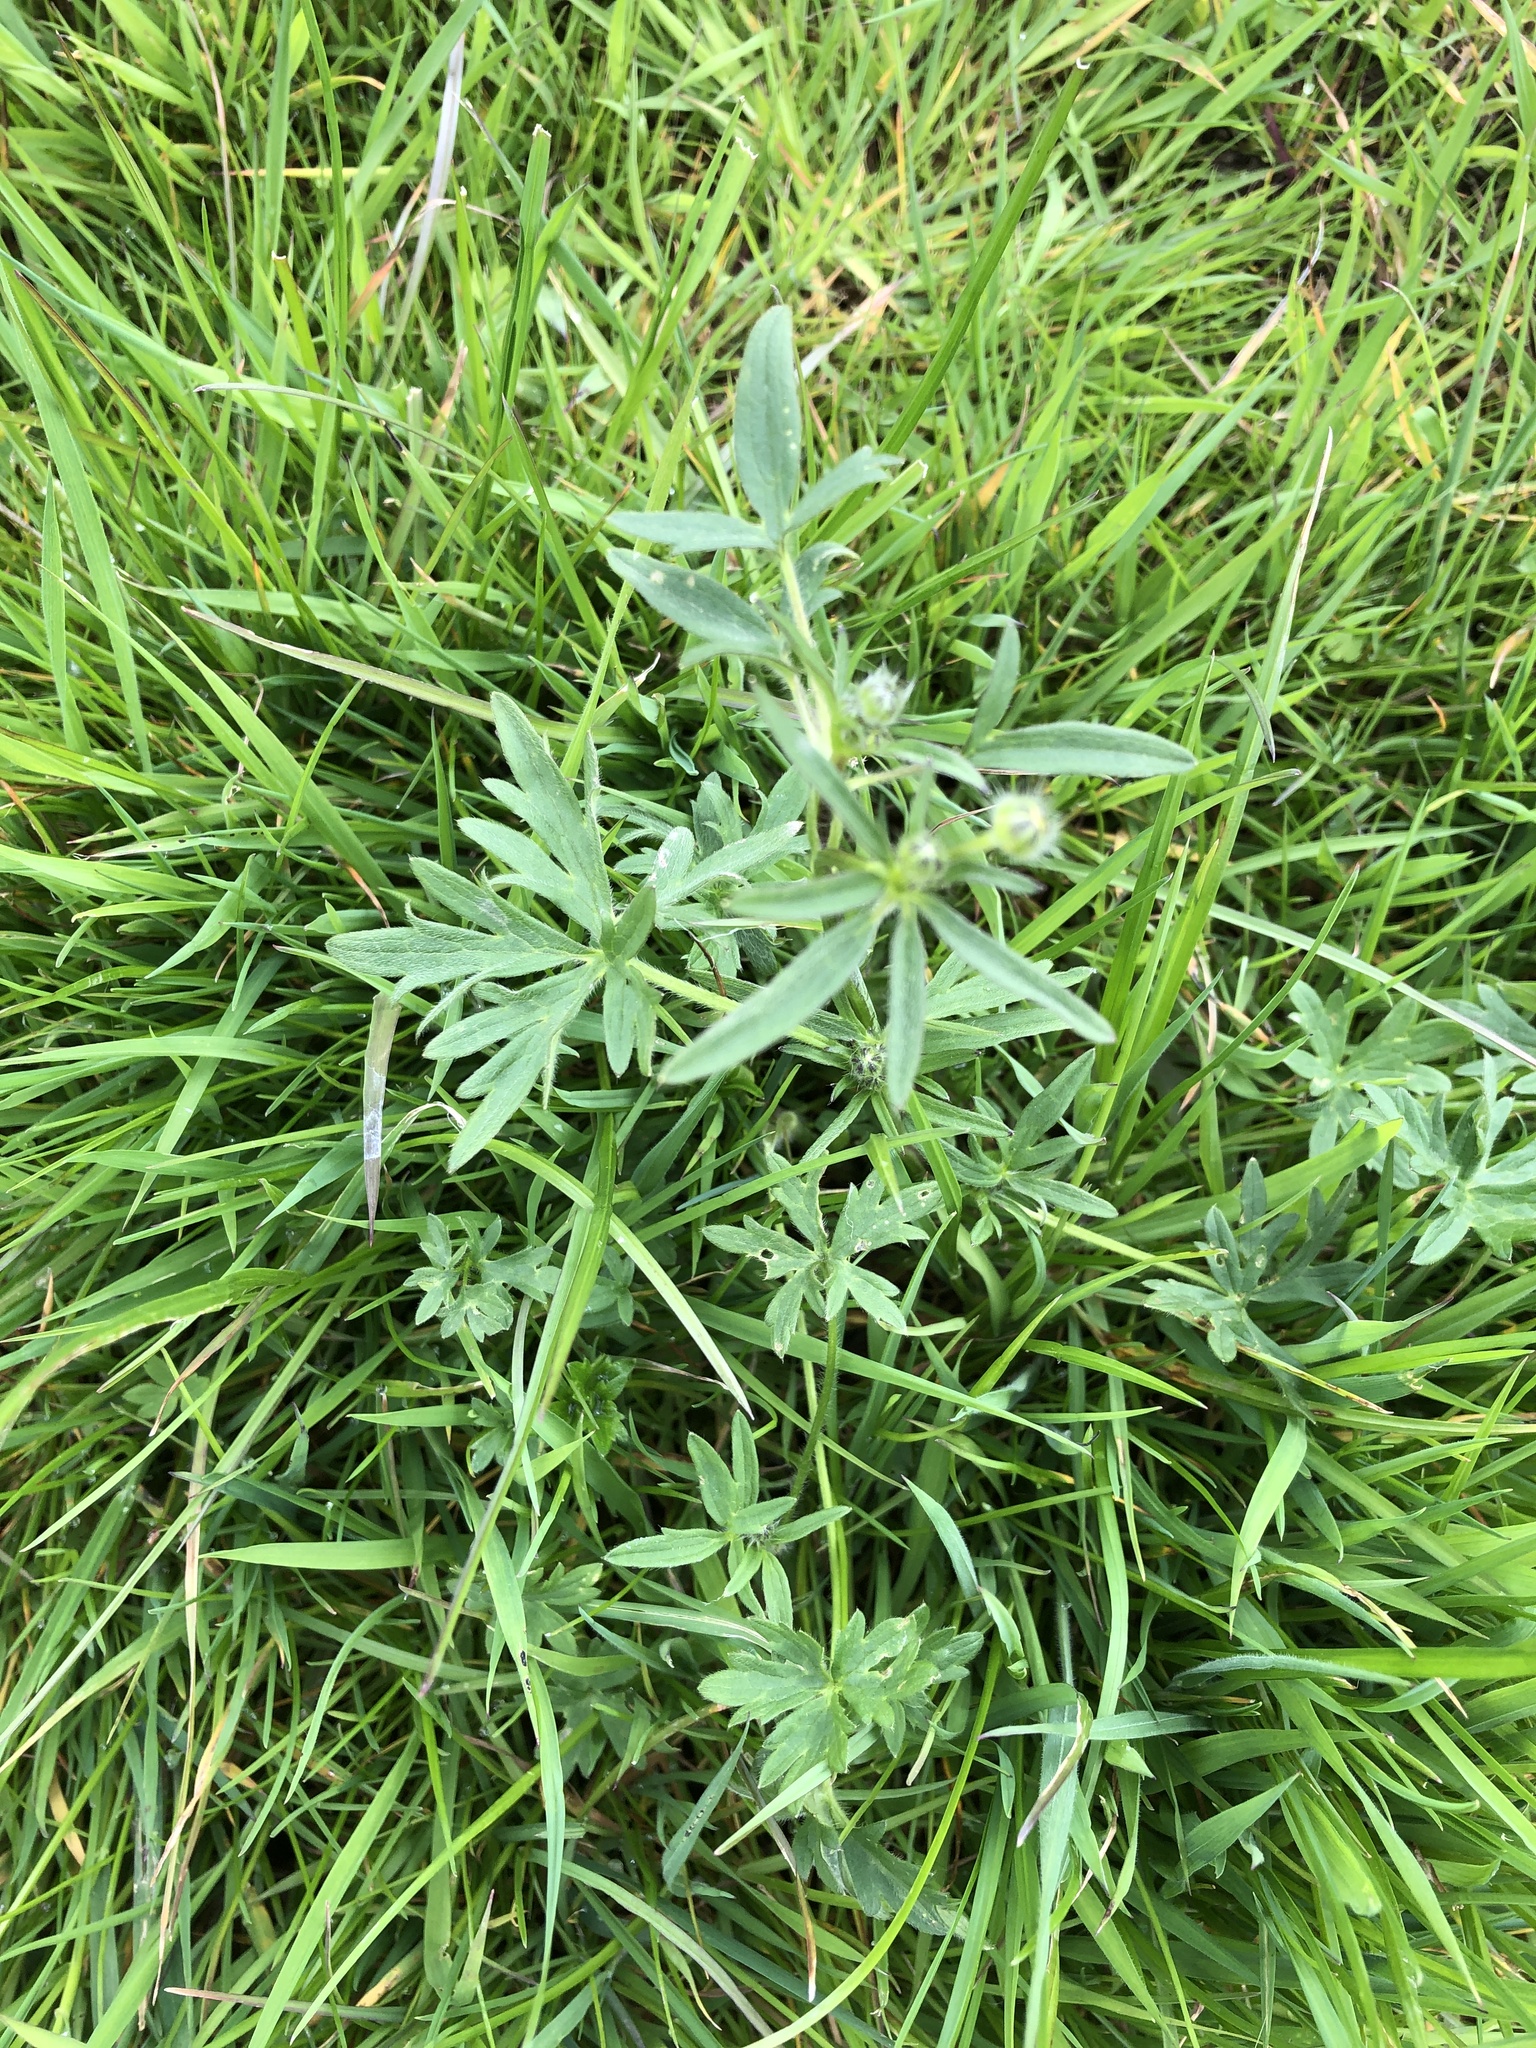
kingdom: Plantae
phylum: Tracheophyta
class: Magnoliopsida
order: Ranunculales
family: Ranunculaceae
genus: Ranunculus
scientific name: Ranunculus acris
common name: Meadow buttercup
